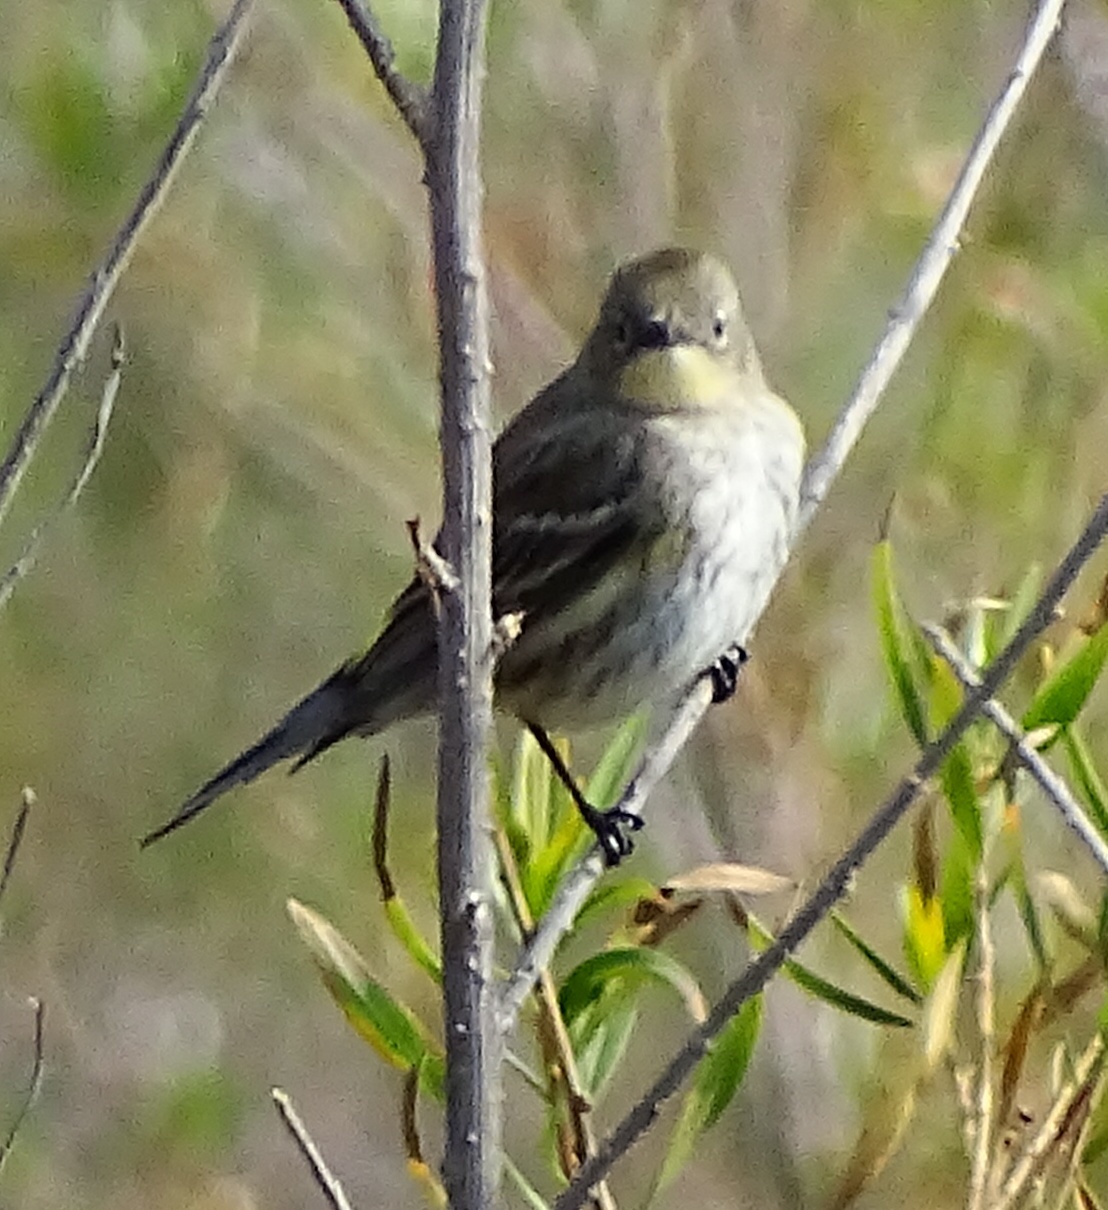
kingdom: Animalia
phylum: Chordata
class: Aves
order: Passeriformes
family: Parulidae
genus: Setophaga
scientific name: Setophaga coronata
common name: Myrtle warbler
